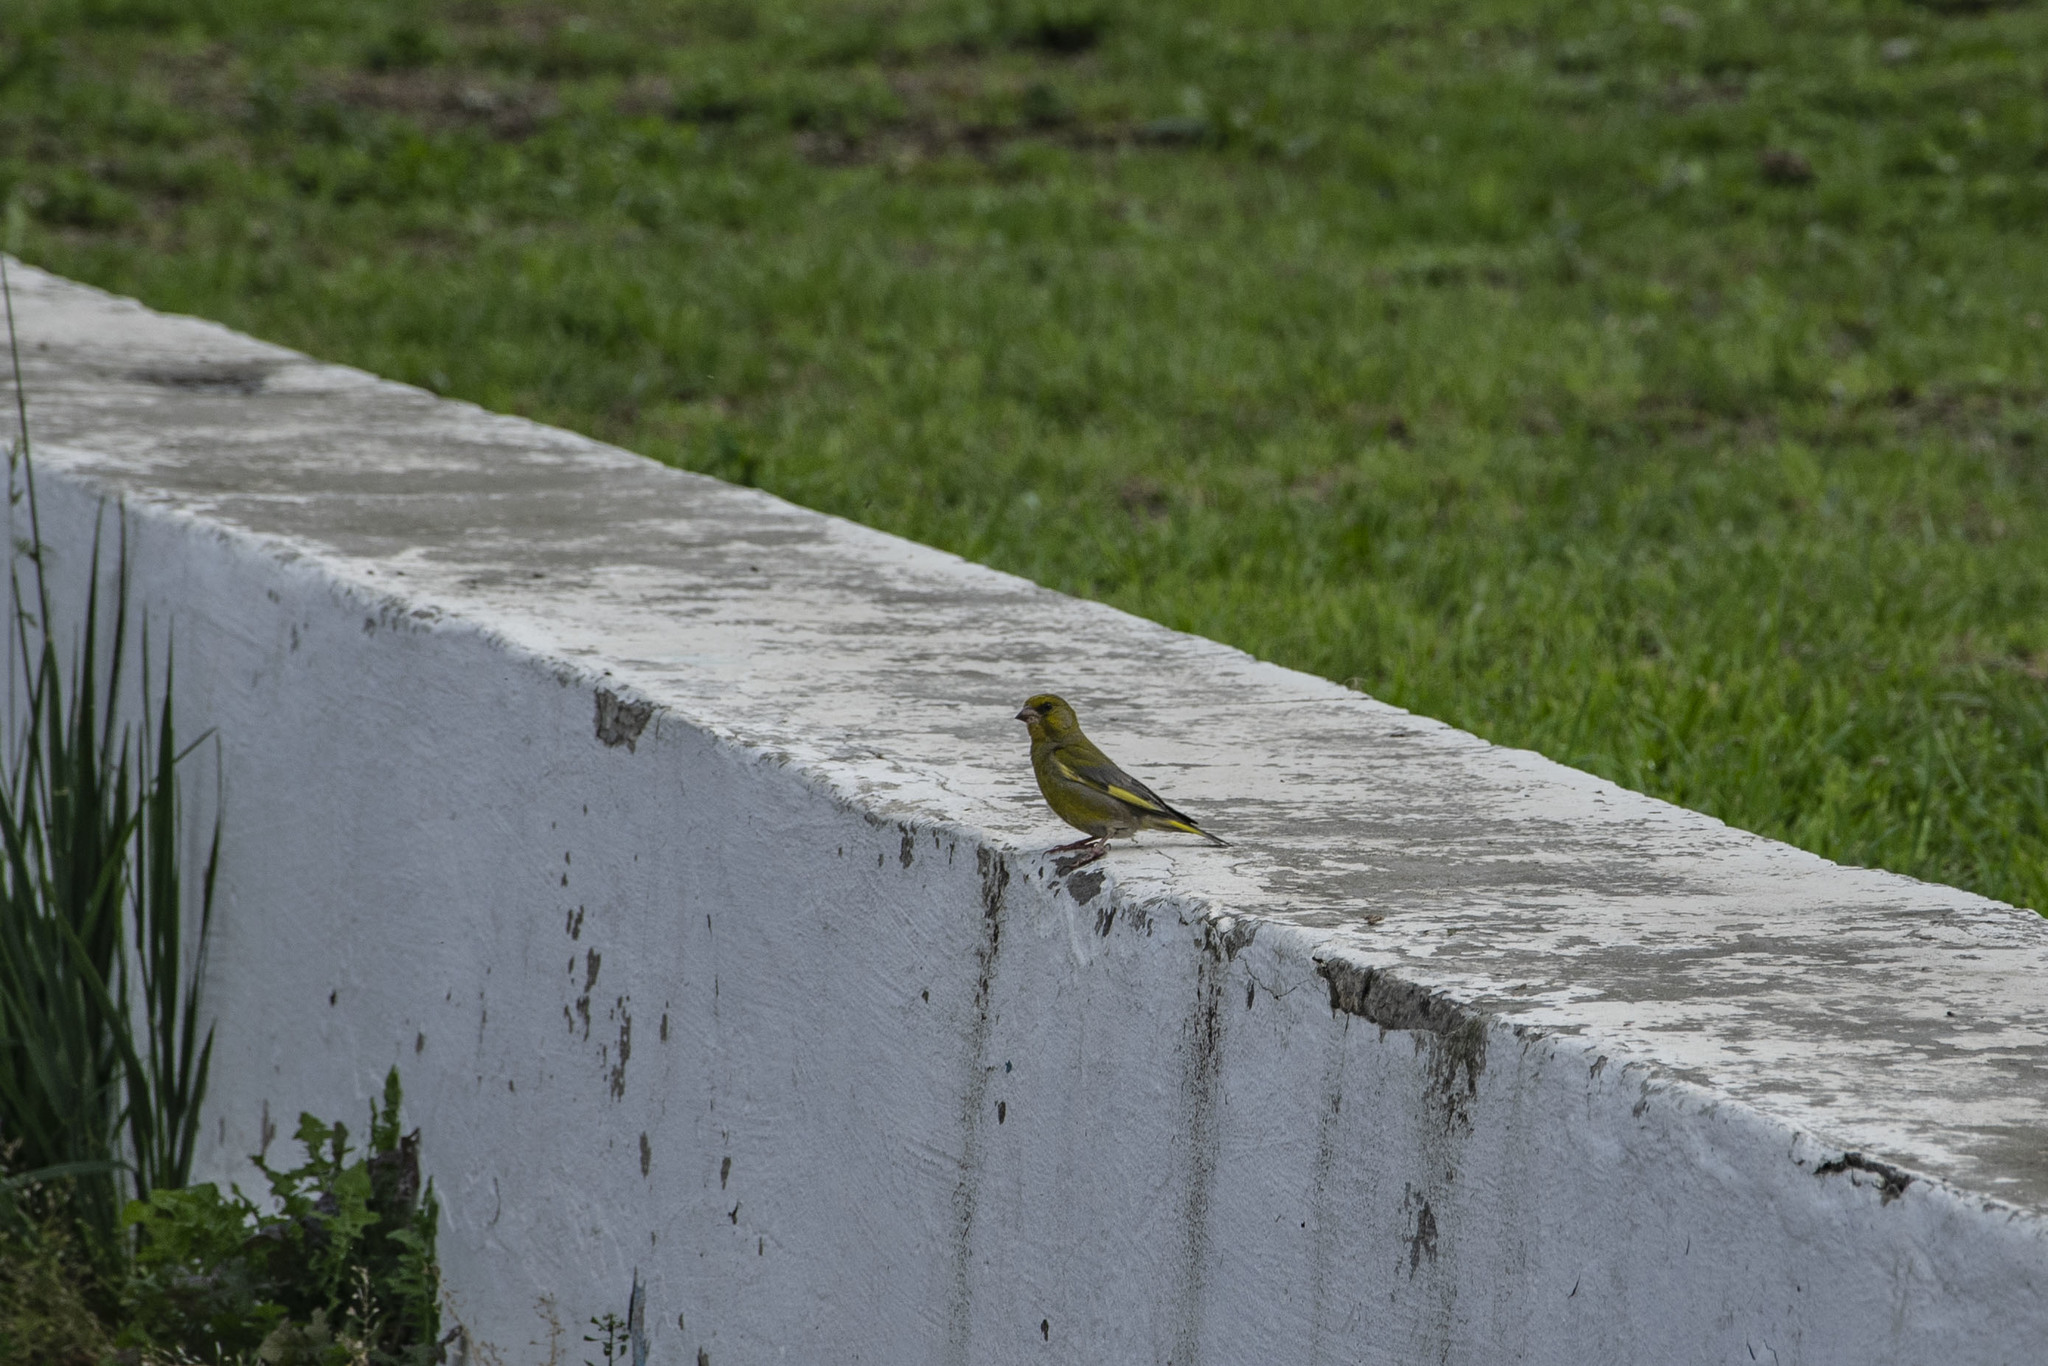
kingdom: Plantae
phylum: Tracheophyta
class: Liliopsida
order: Poales
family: Poaceae
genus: Chloris
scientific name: Chloris chloris
